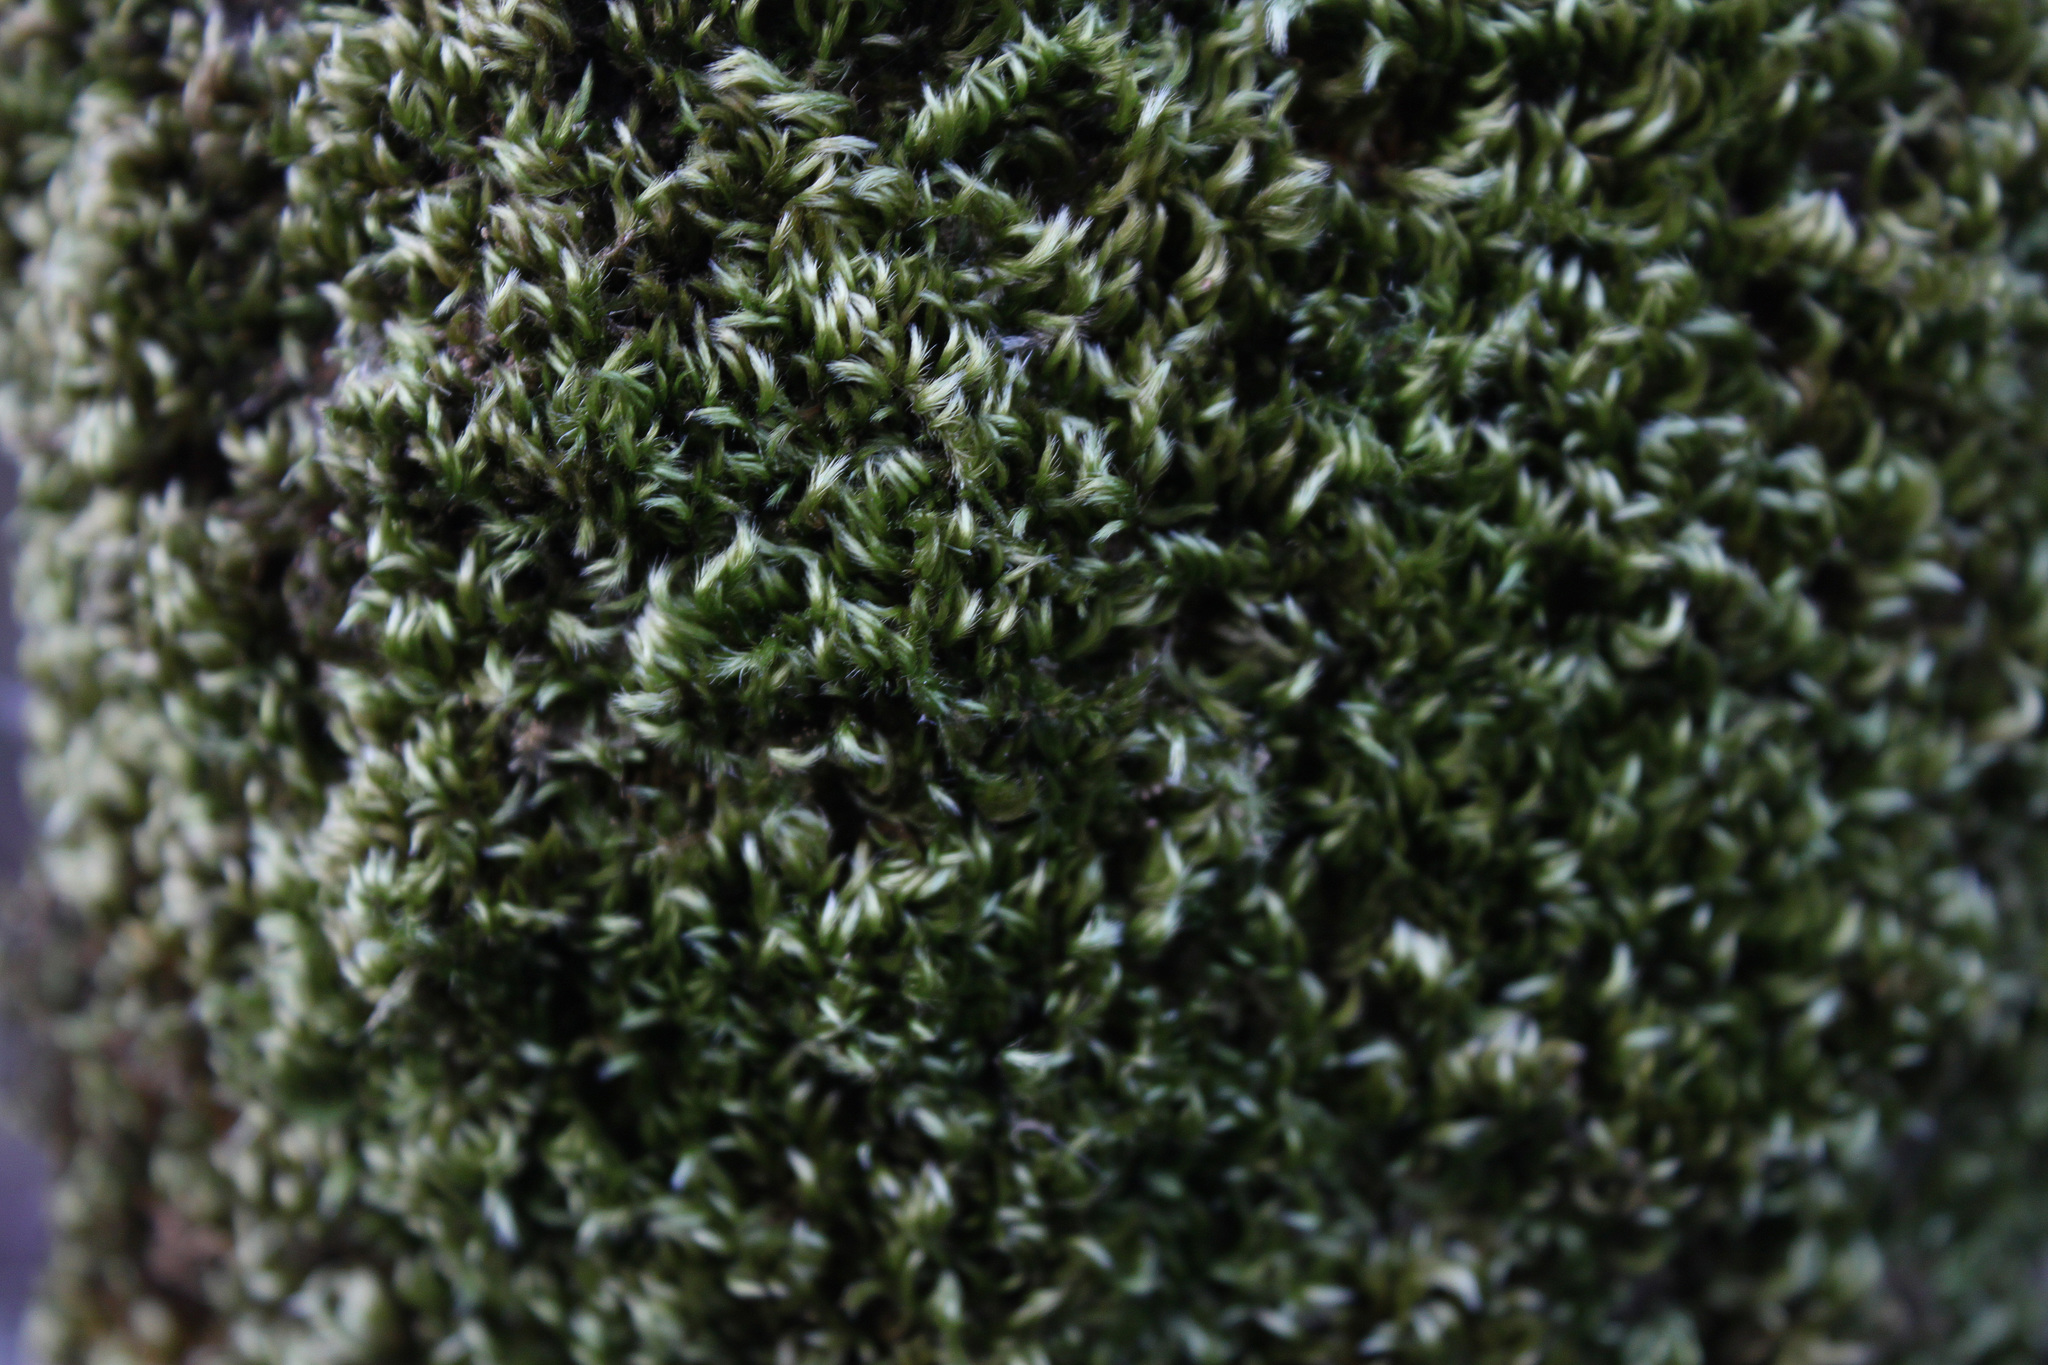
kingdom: Plantae
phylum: Bryophyta
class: Bryopsida
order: Hypnales
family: Brachytheciaceae
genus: Homalothecium
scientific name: Homalothecium sericeum
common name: Silky wall feather-moss
